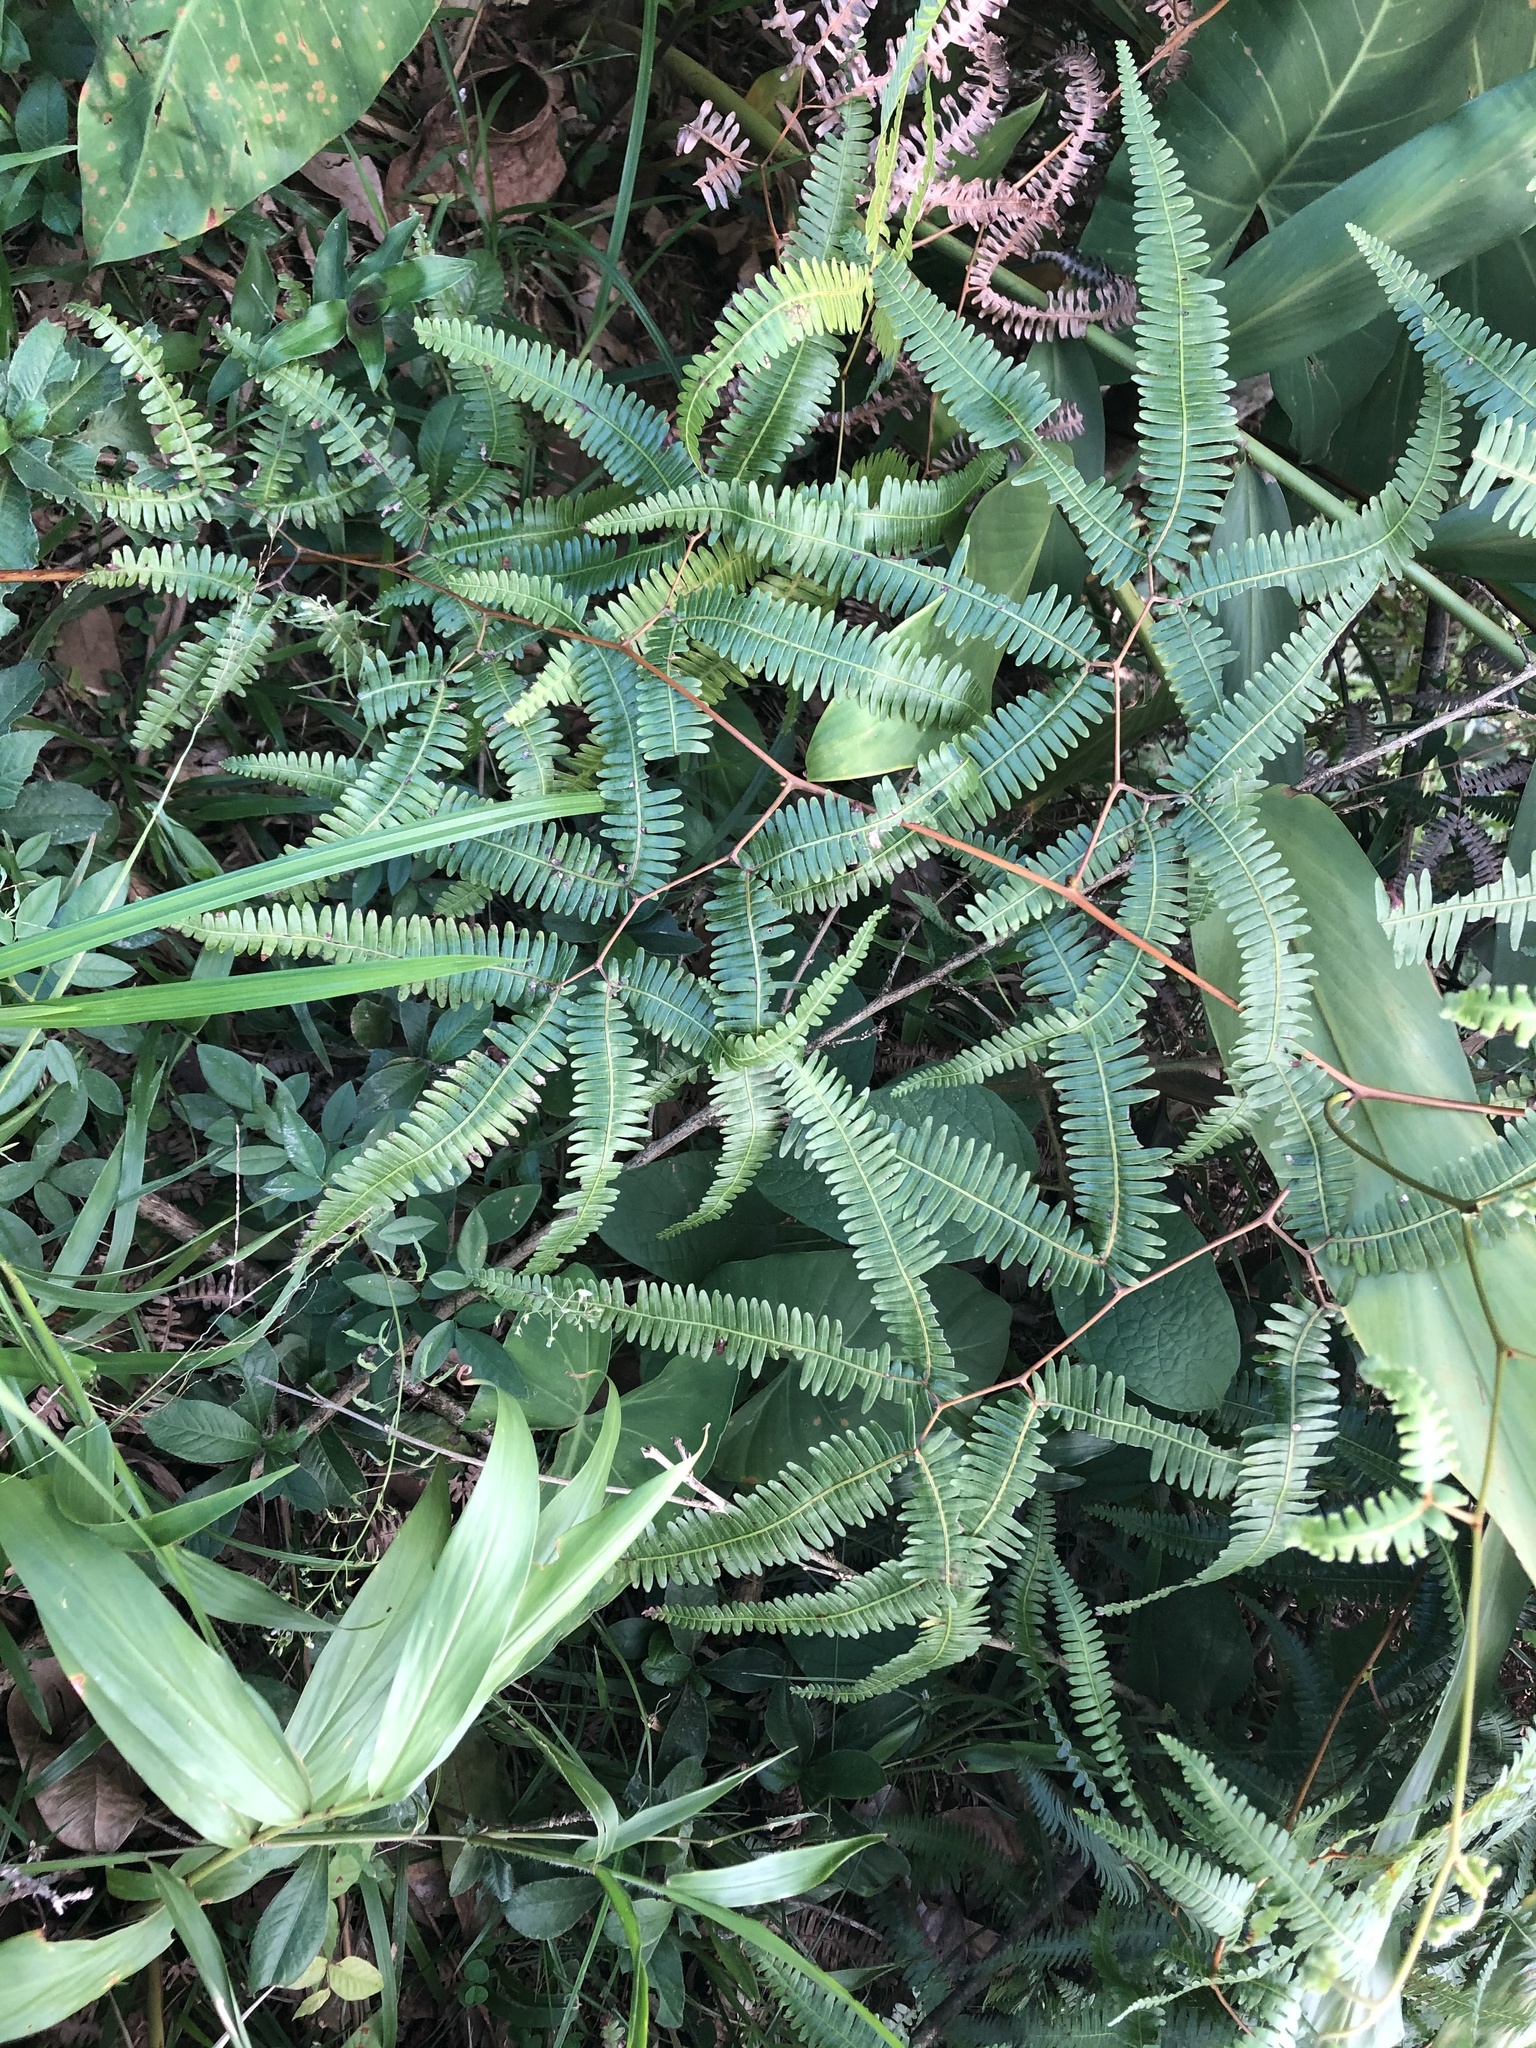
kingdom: Plantae
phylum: Tracheophyta
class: Polypodiopsida
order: Gleicheniales
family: Gleicheniaceae
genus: Gleichenella
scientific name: Gleichenella pectinata
